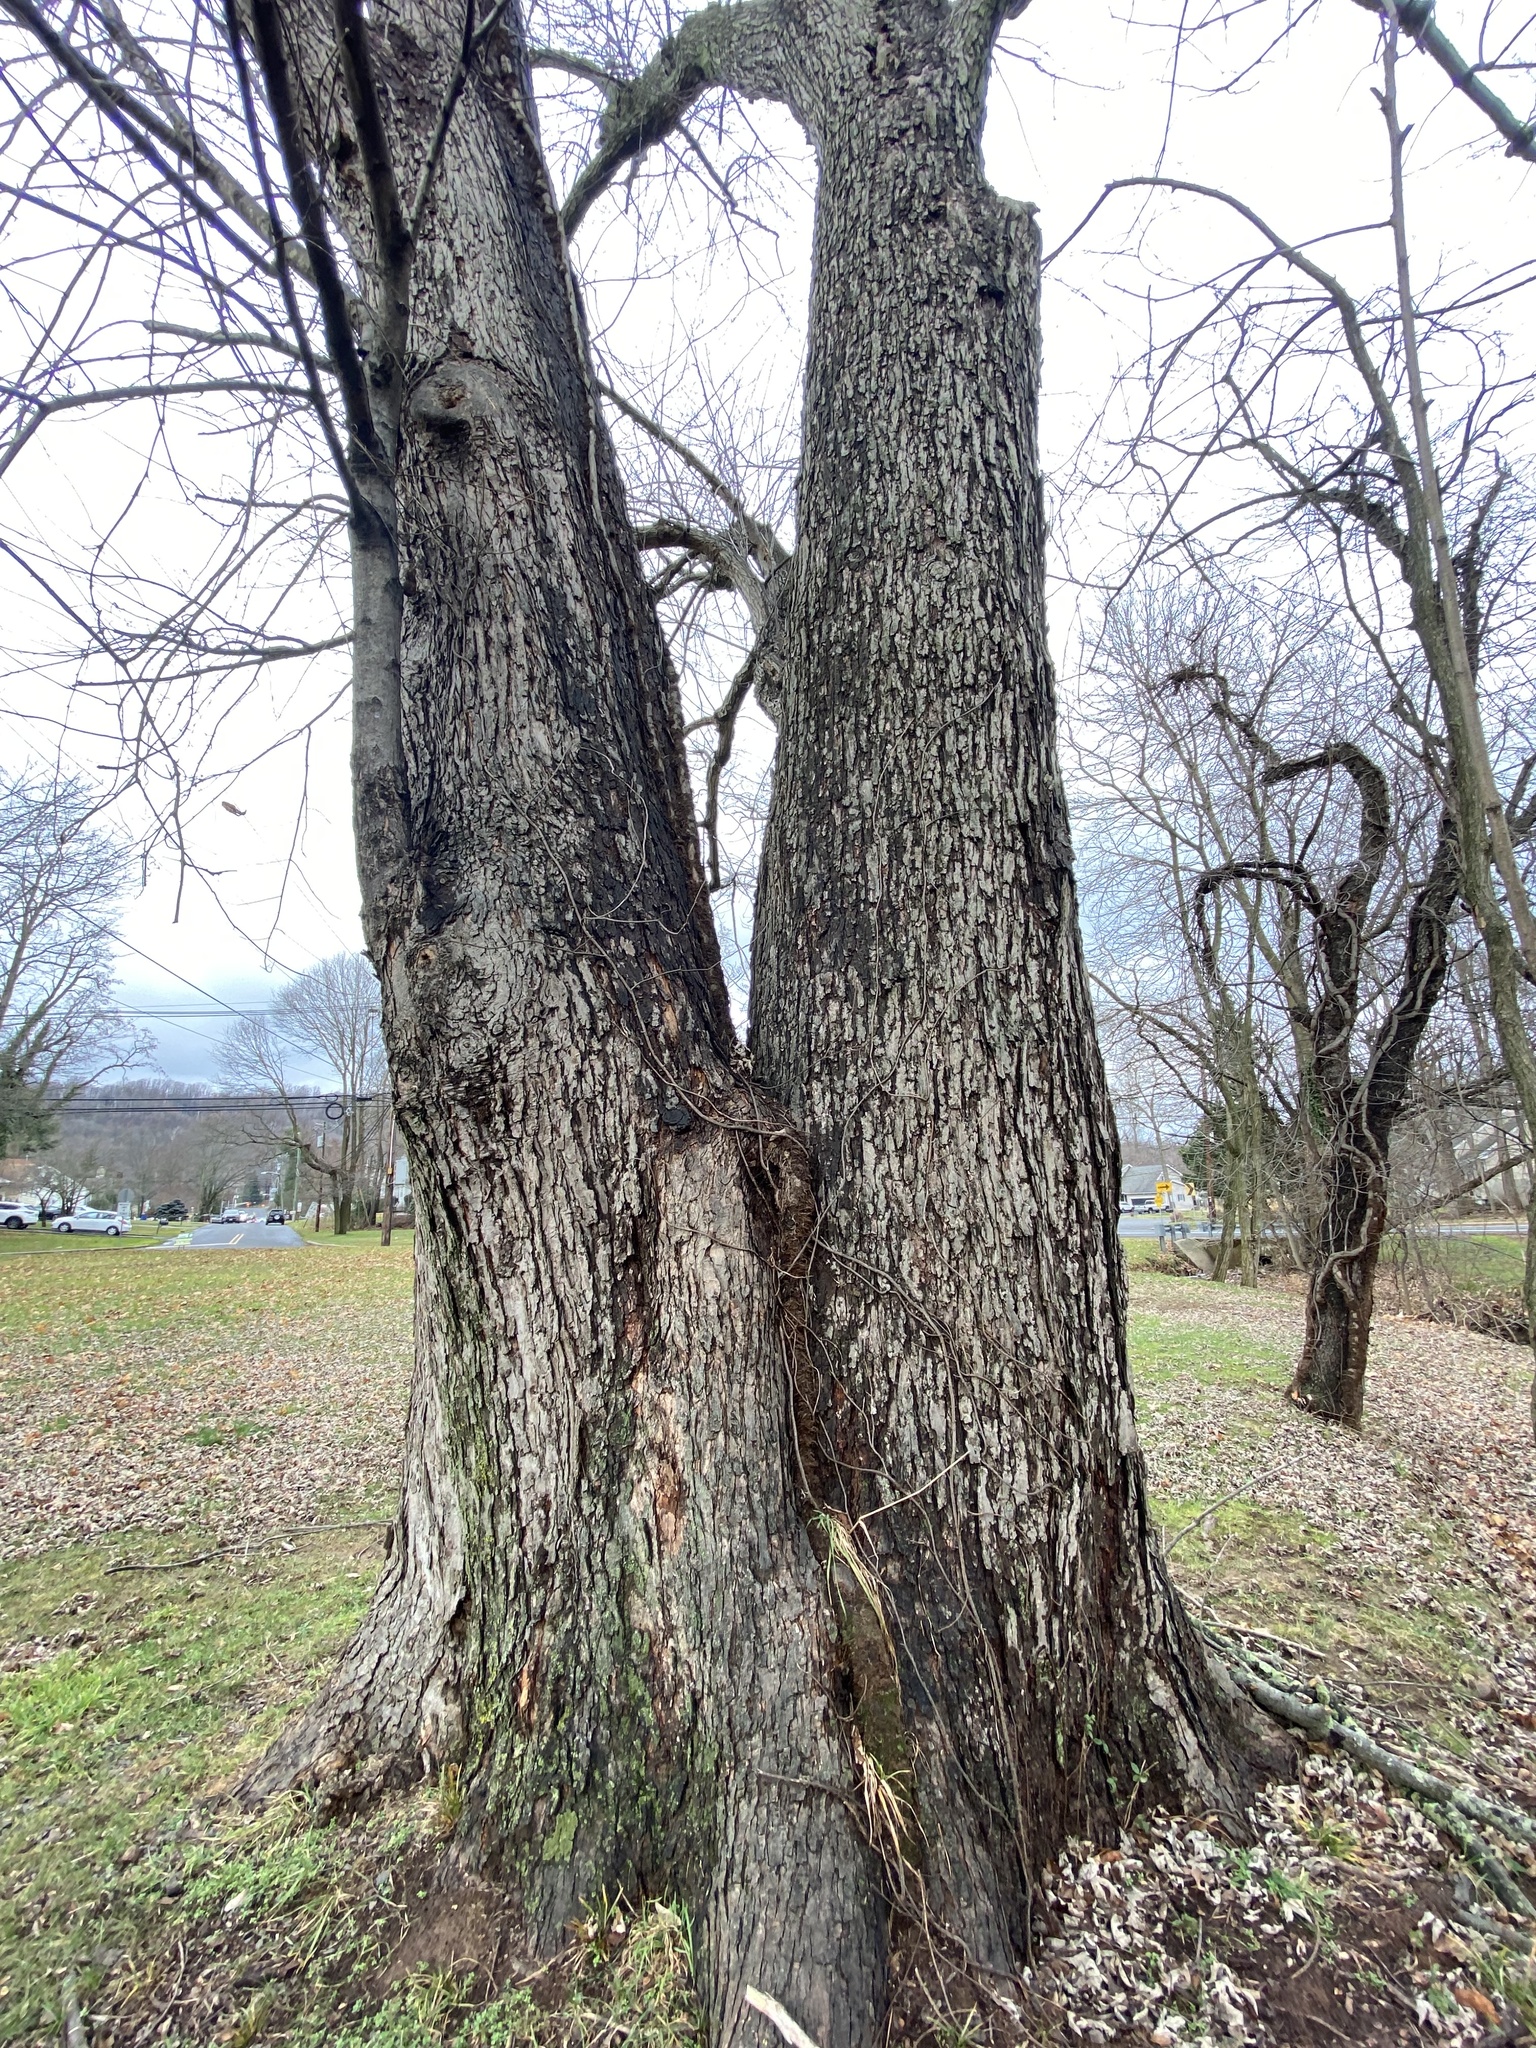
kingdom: Plantae
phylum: Tracheophyta
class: Magnoliopsida
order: Sapindales
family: Sapindaceae
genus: Acer
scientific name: Acer saccharinum
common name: Silver maple
